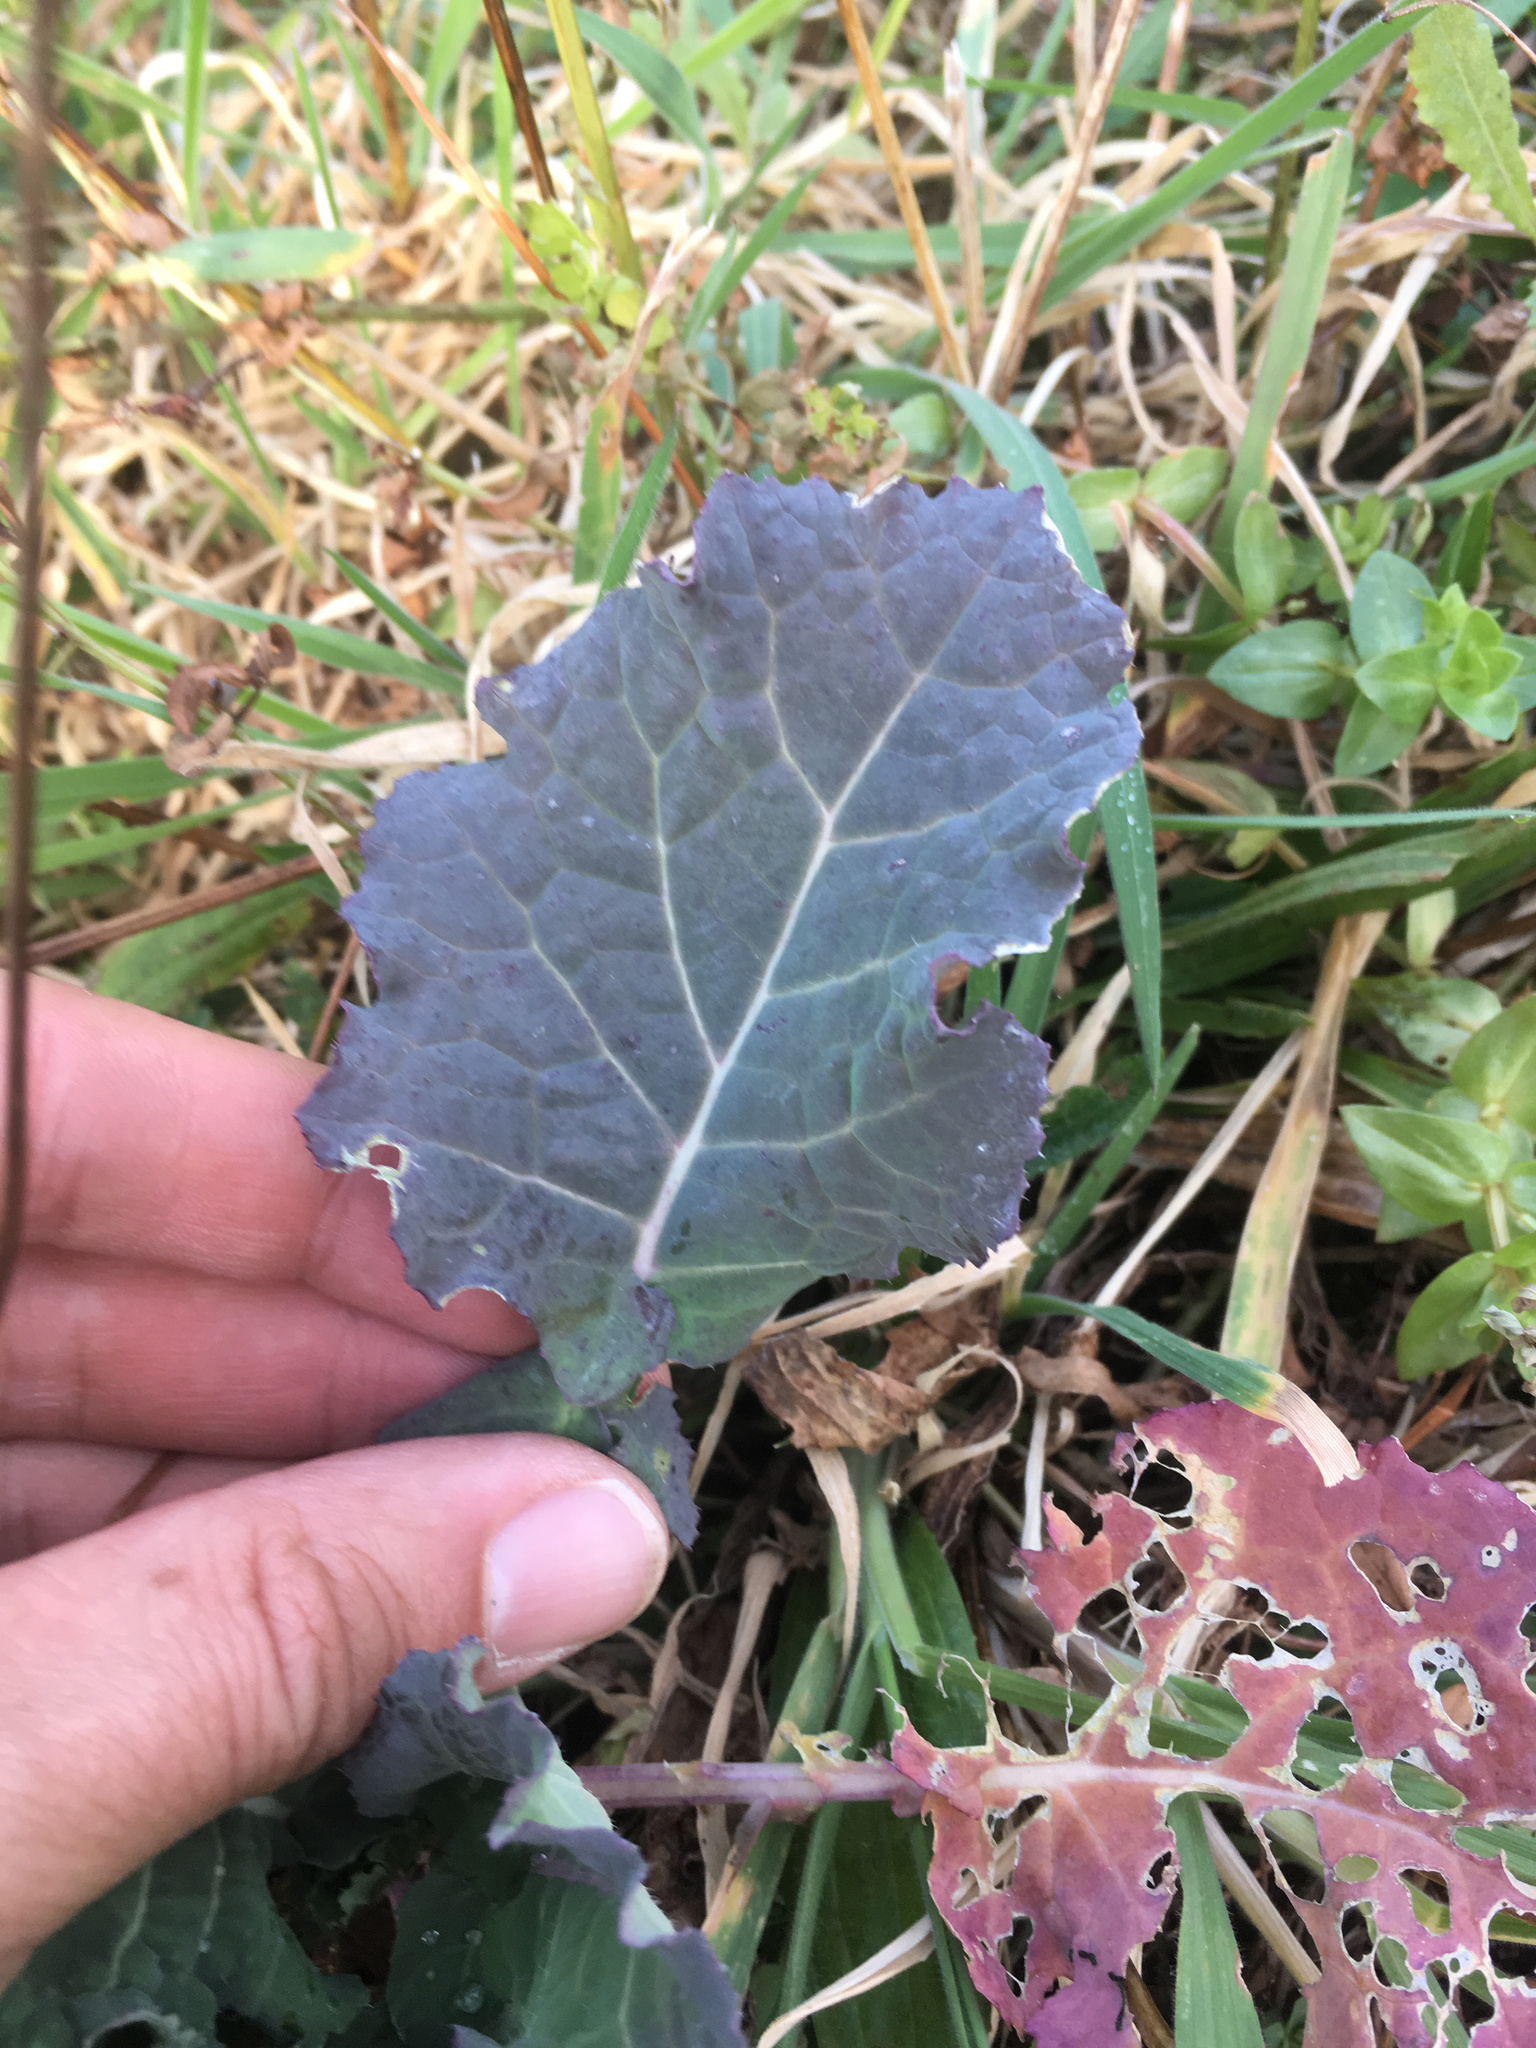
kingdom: Plantae
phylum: Tracheophyta
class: Magnoliopsida
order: Brassicales
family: Brassicaceae
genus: Brassica
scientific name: Brassica oleracea
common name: Cabbage
